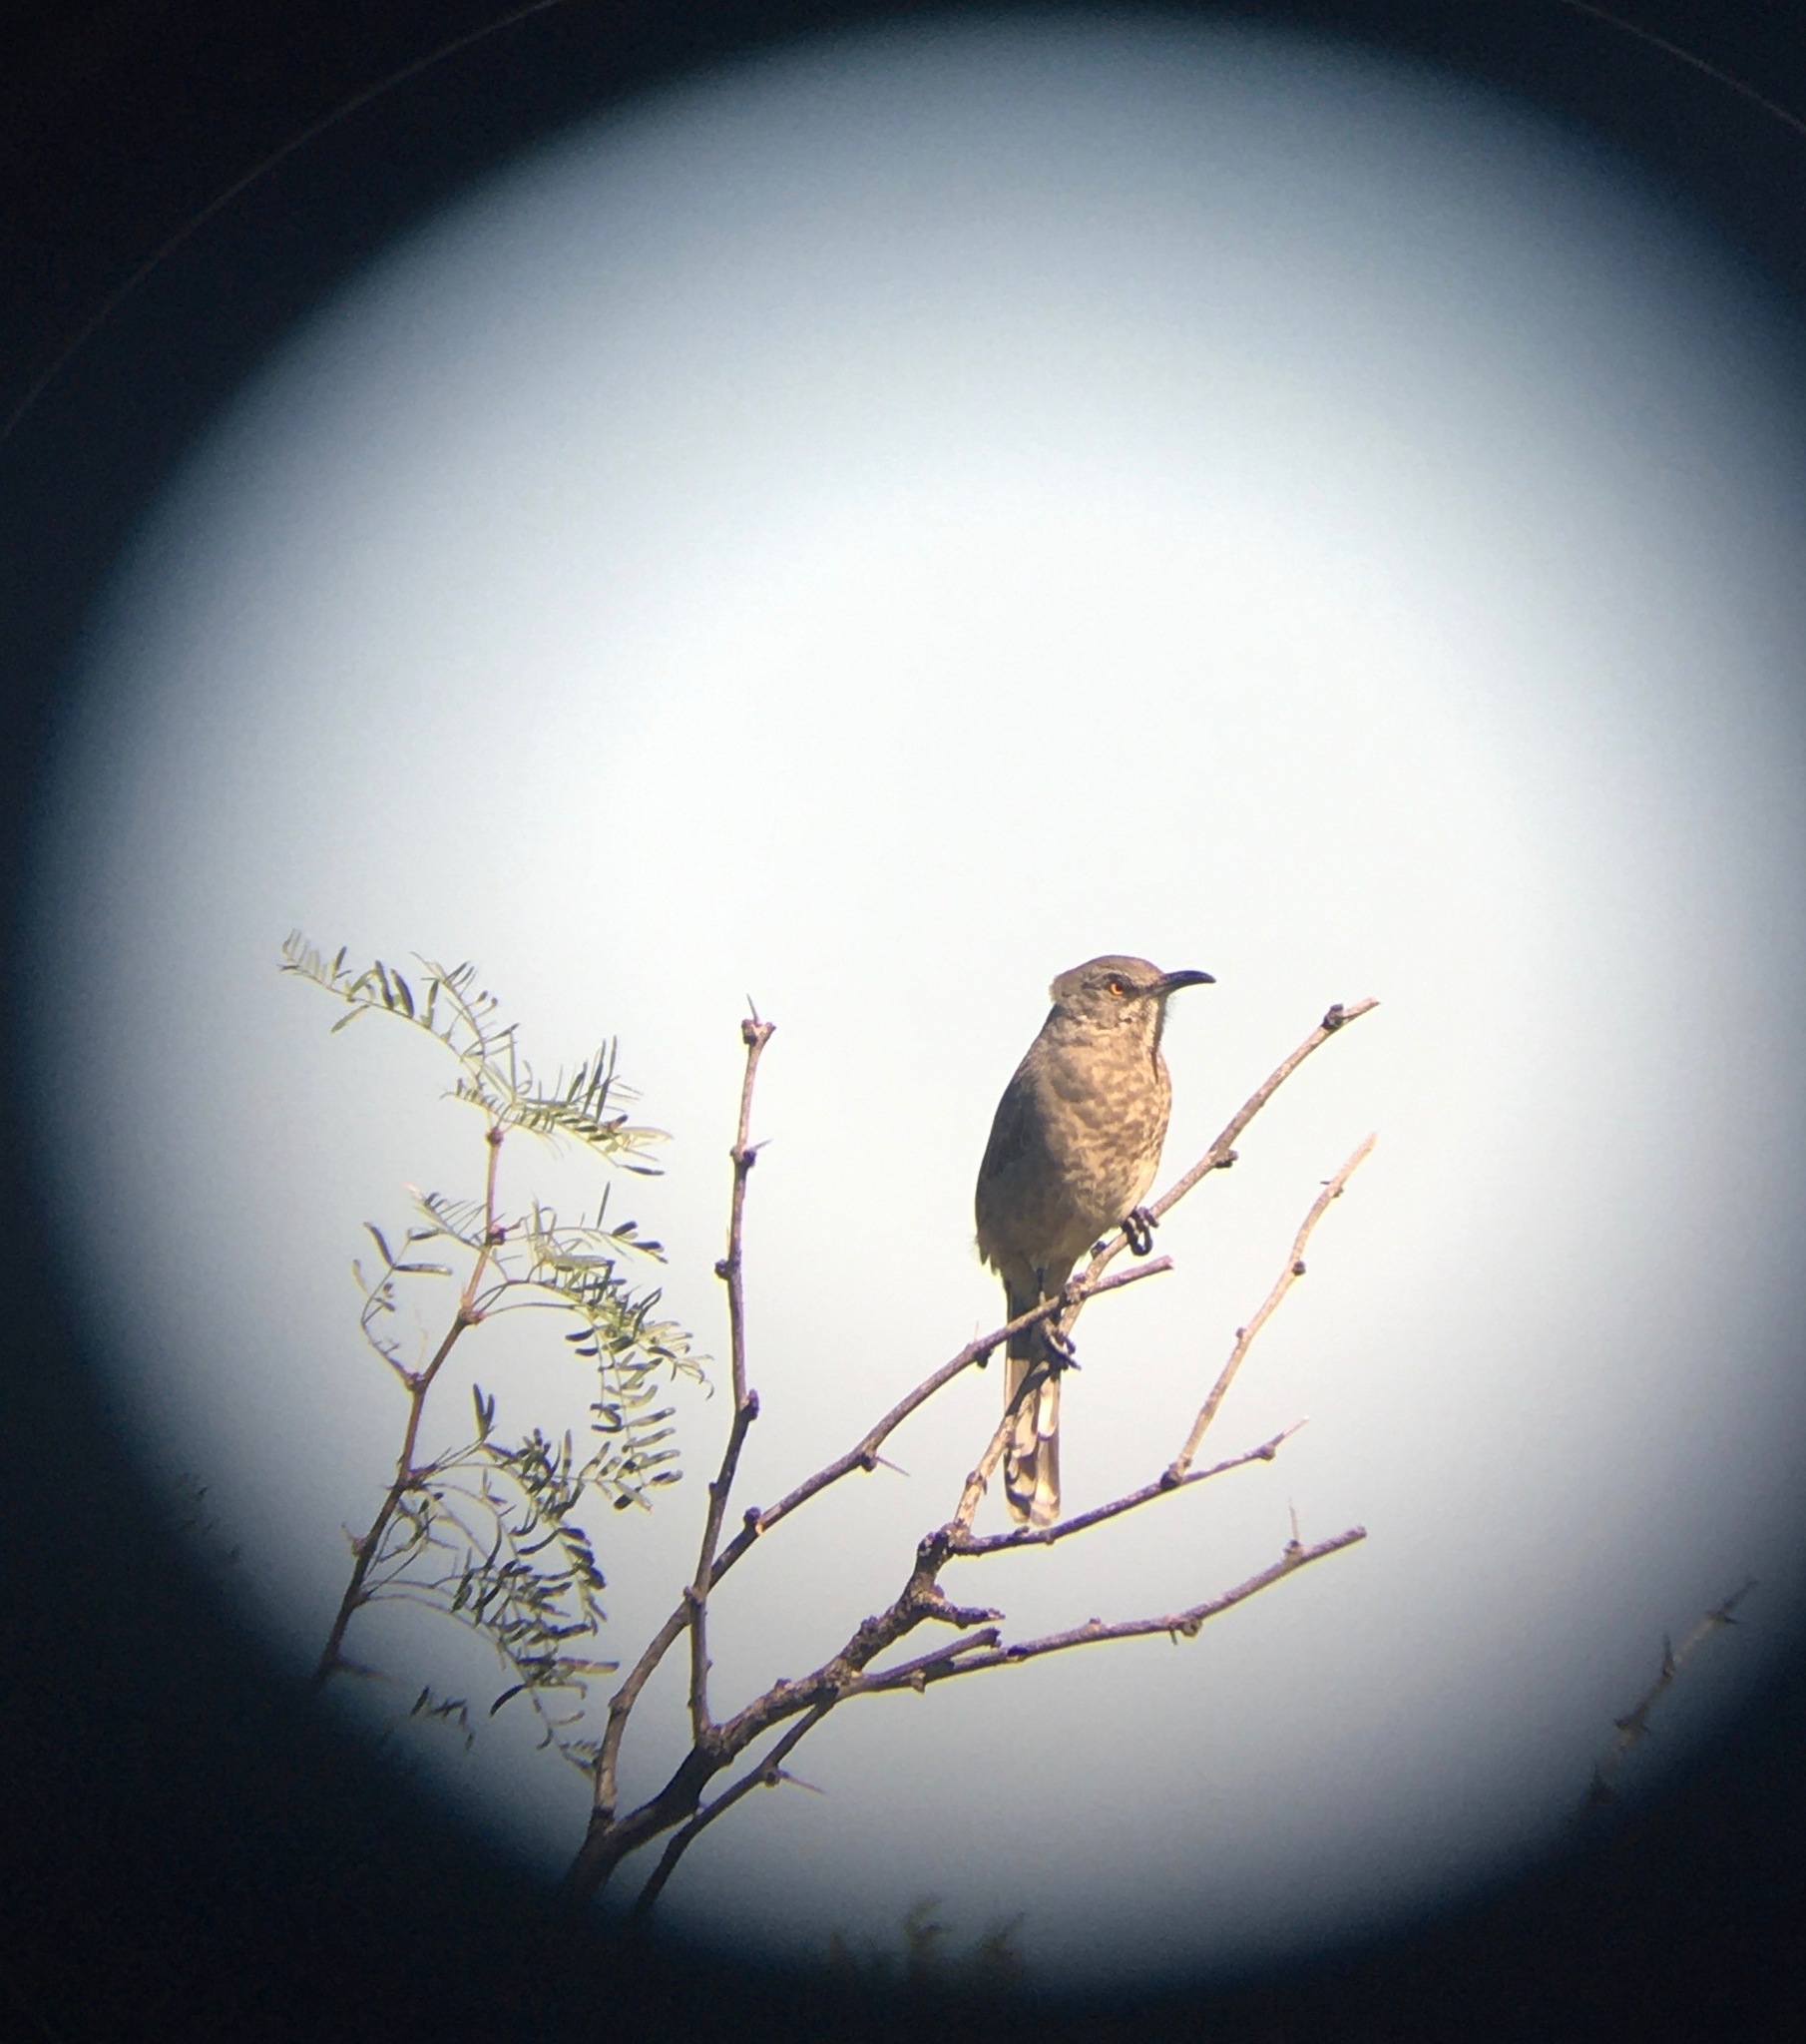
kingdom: Animalia
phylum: Chordata
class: Aves
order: Passeriformes
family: Mimidae
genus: Toxostoma
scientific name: Toxostoma curvirostre
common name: Curve-billed thrasher
